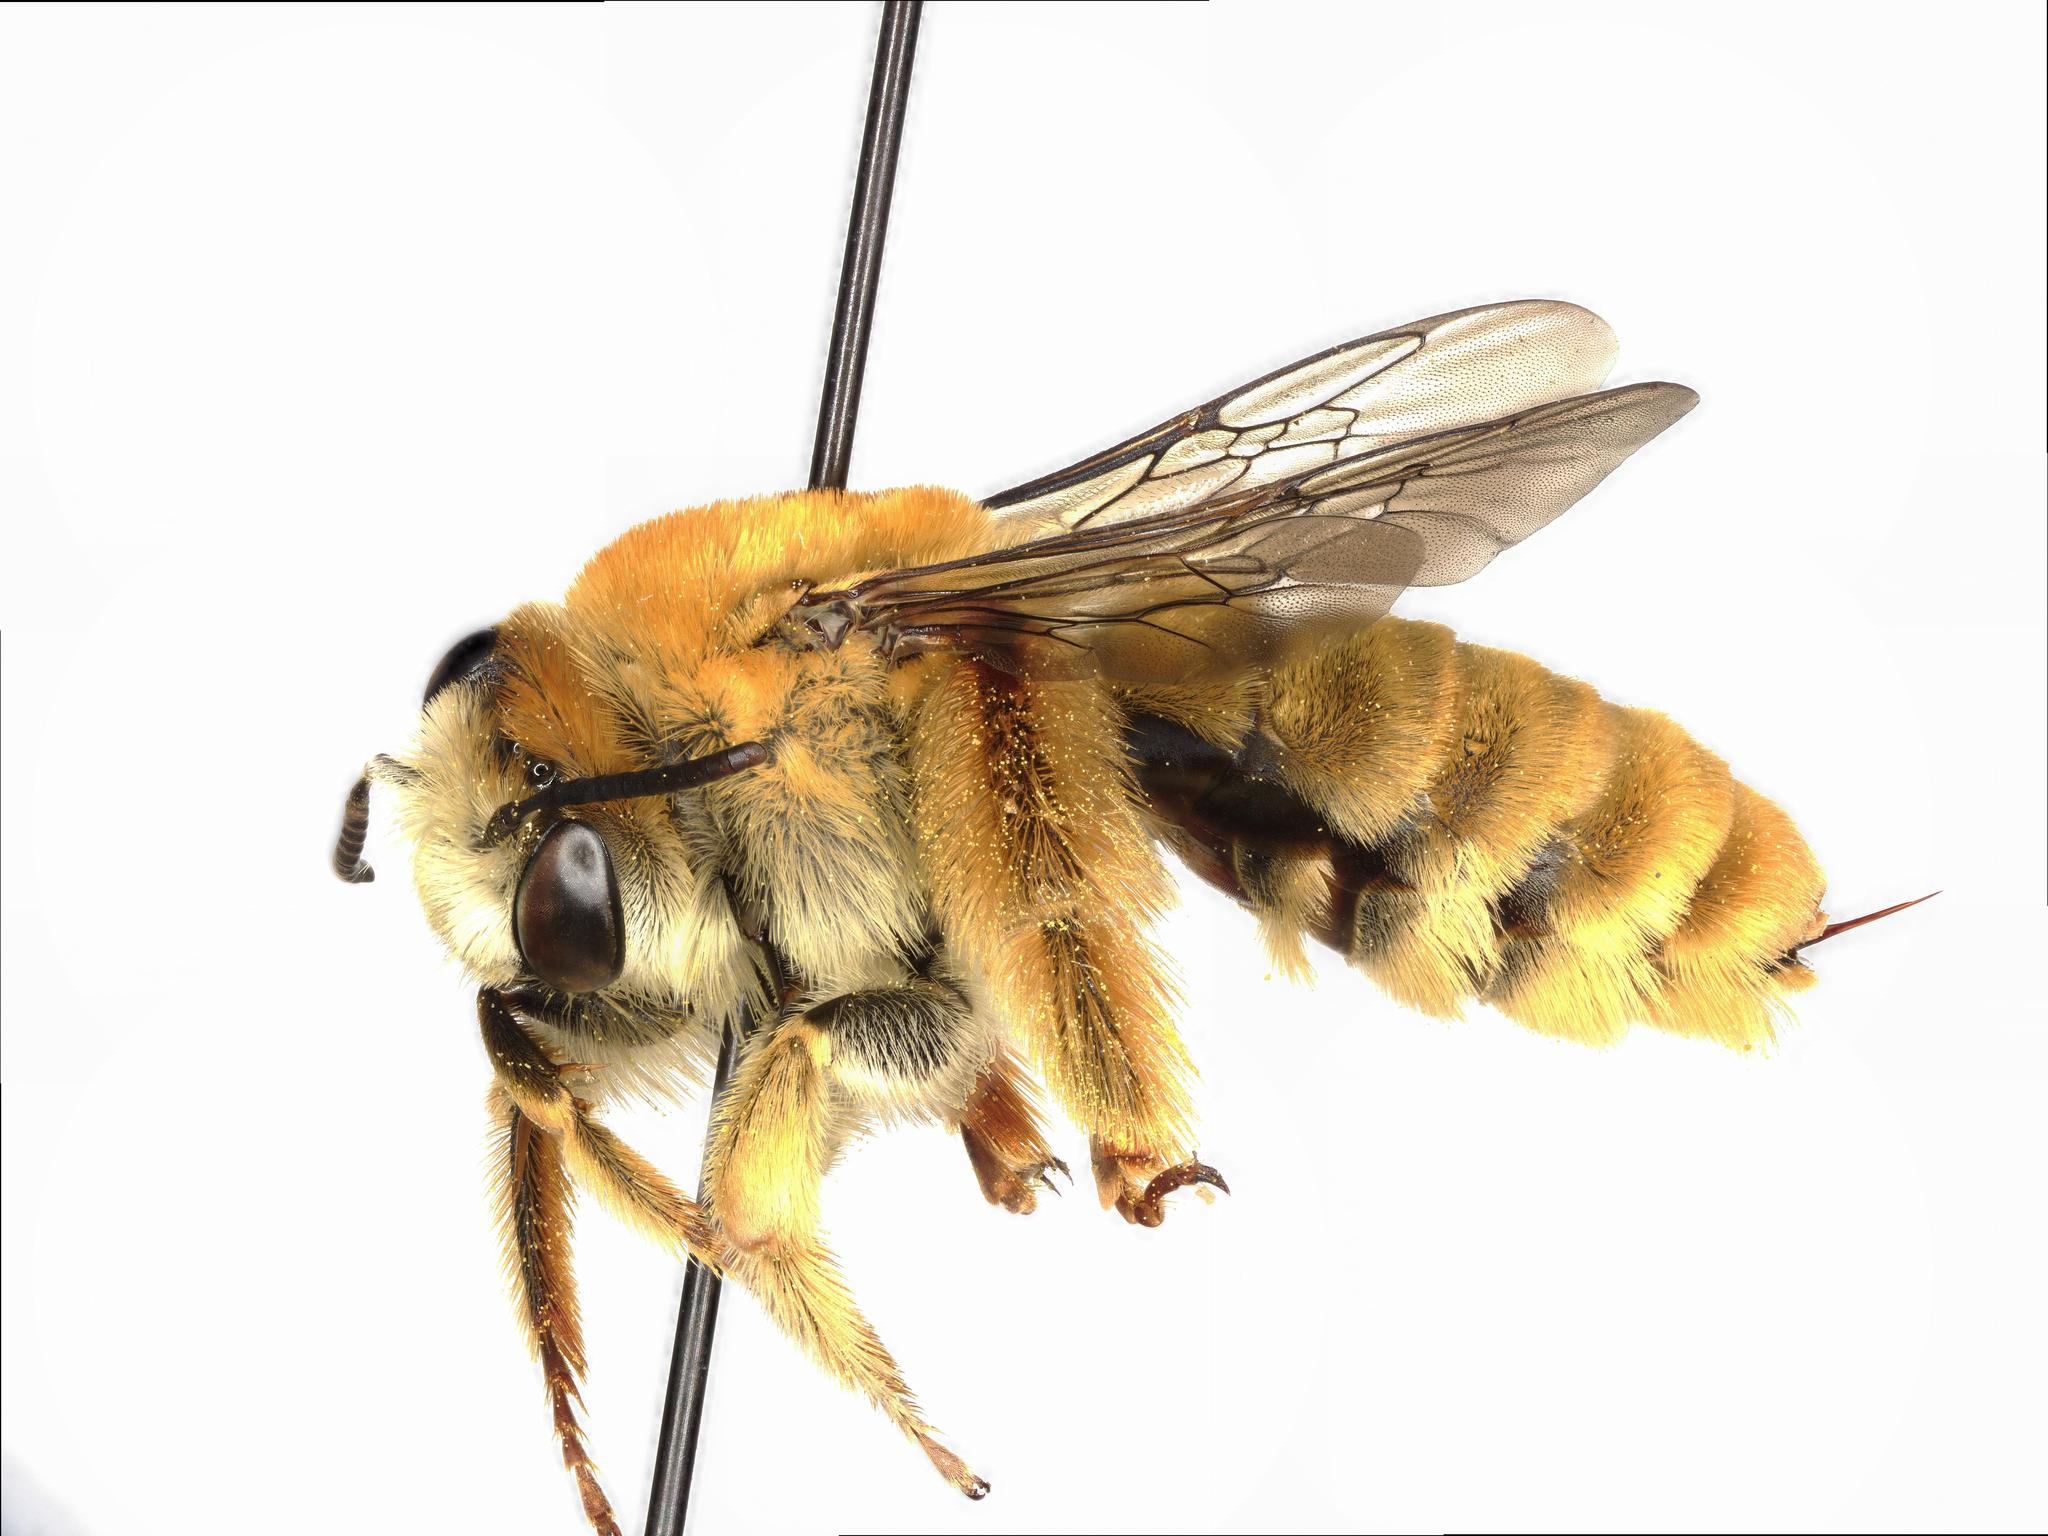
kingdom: Animalia
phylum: Arthropoda
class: Insecta
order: Hymenoptera
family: Apidae
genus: Syntrichalonia
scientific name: Syntrichalonia exquisita
